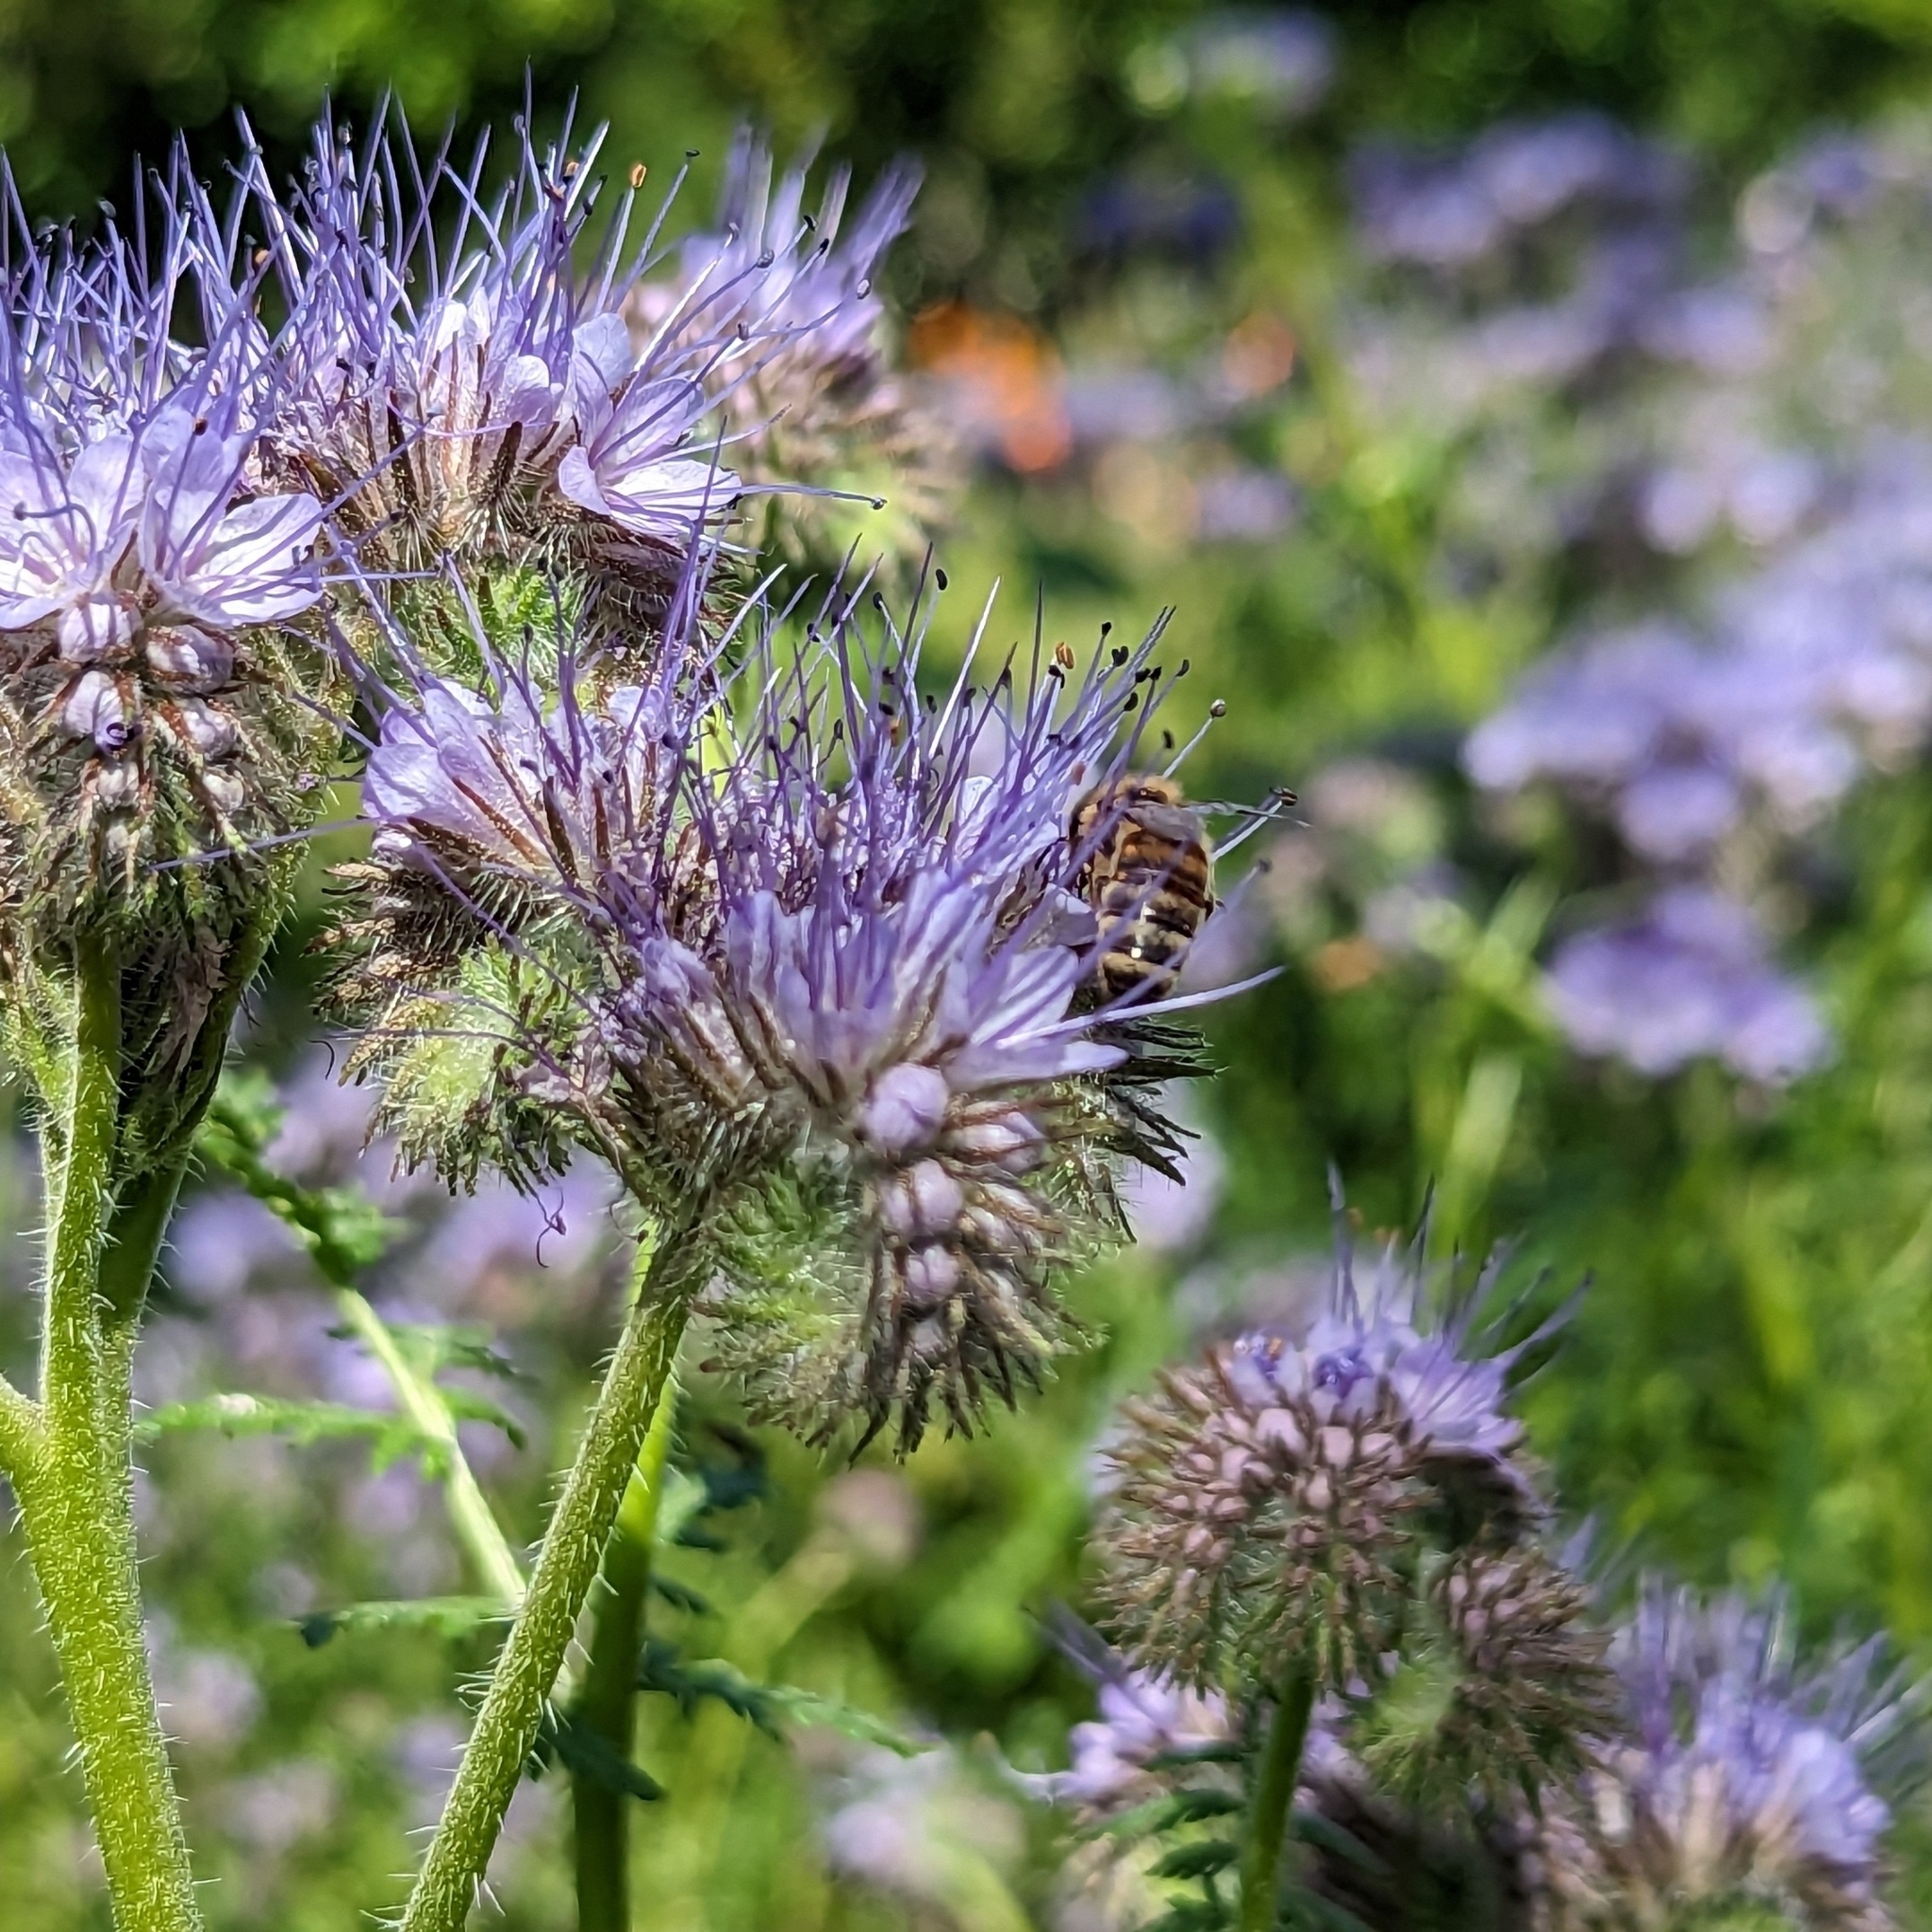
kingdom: Animalia
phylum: Arthropoda
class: Insecta
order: Hymenoptera
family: Apidae
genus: Apis
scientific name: Apis mellifera
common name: Honey bee
